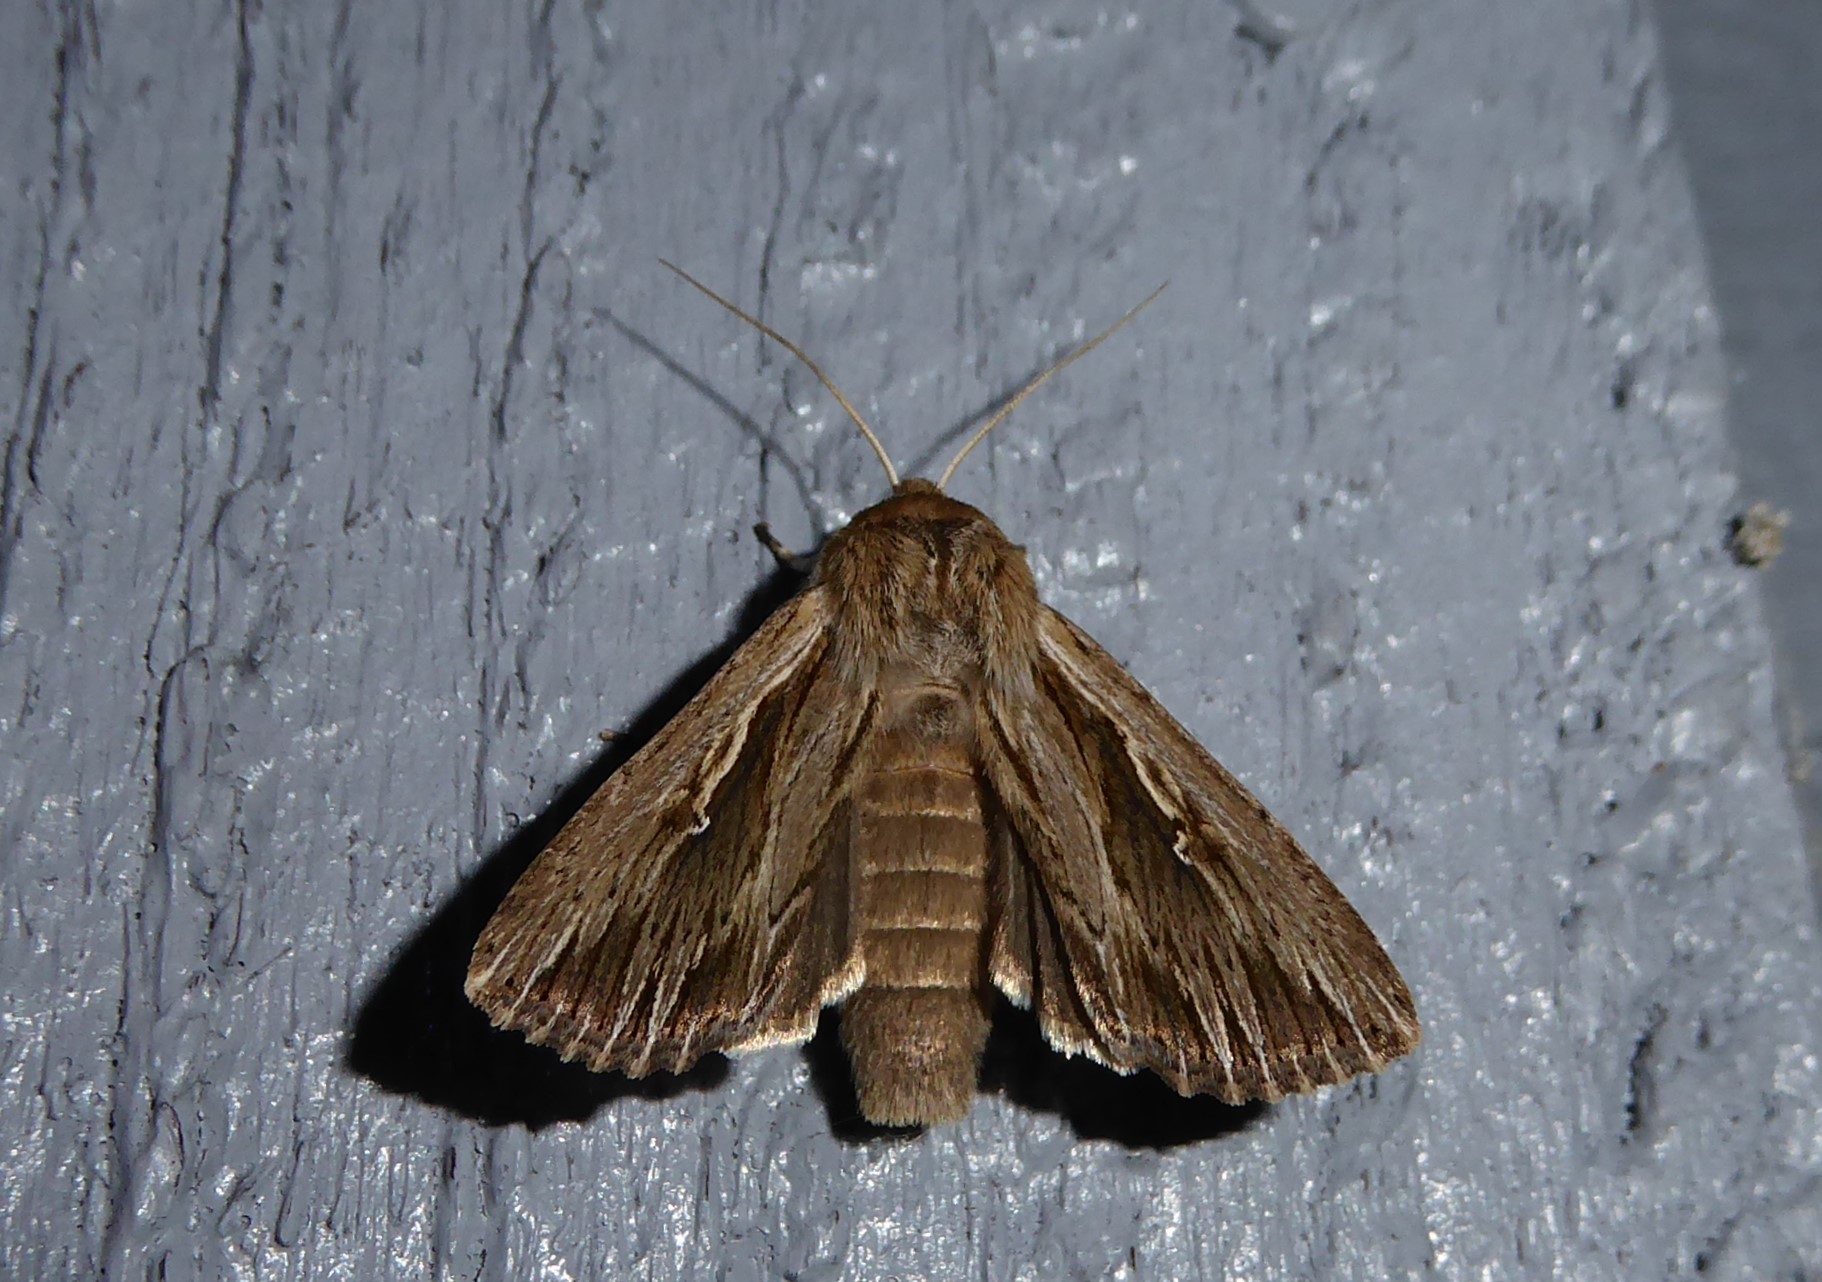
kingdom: Animalia
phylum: Arthropoda
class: Insecta
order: Lepidoptera
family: Noctuidae
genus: Persectania
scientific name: Persectania aversa
